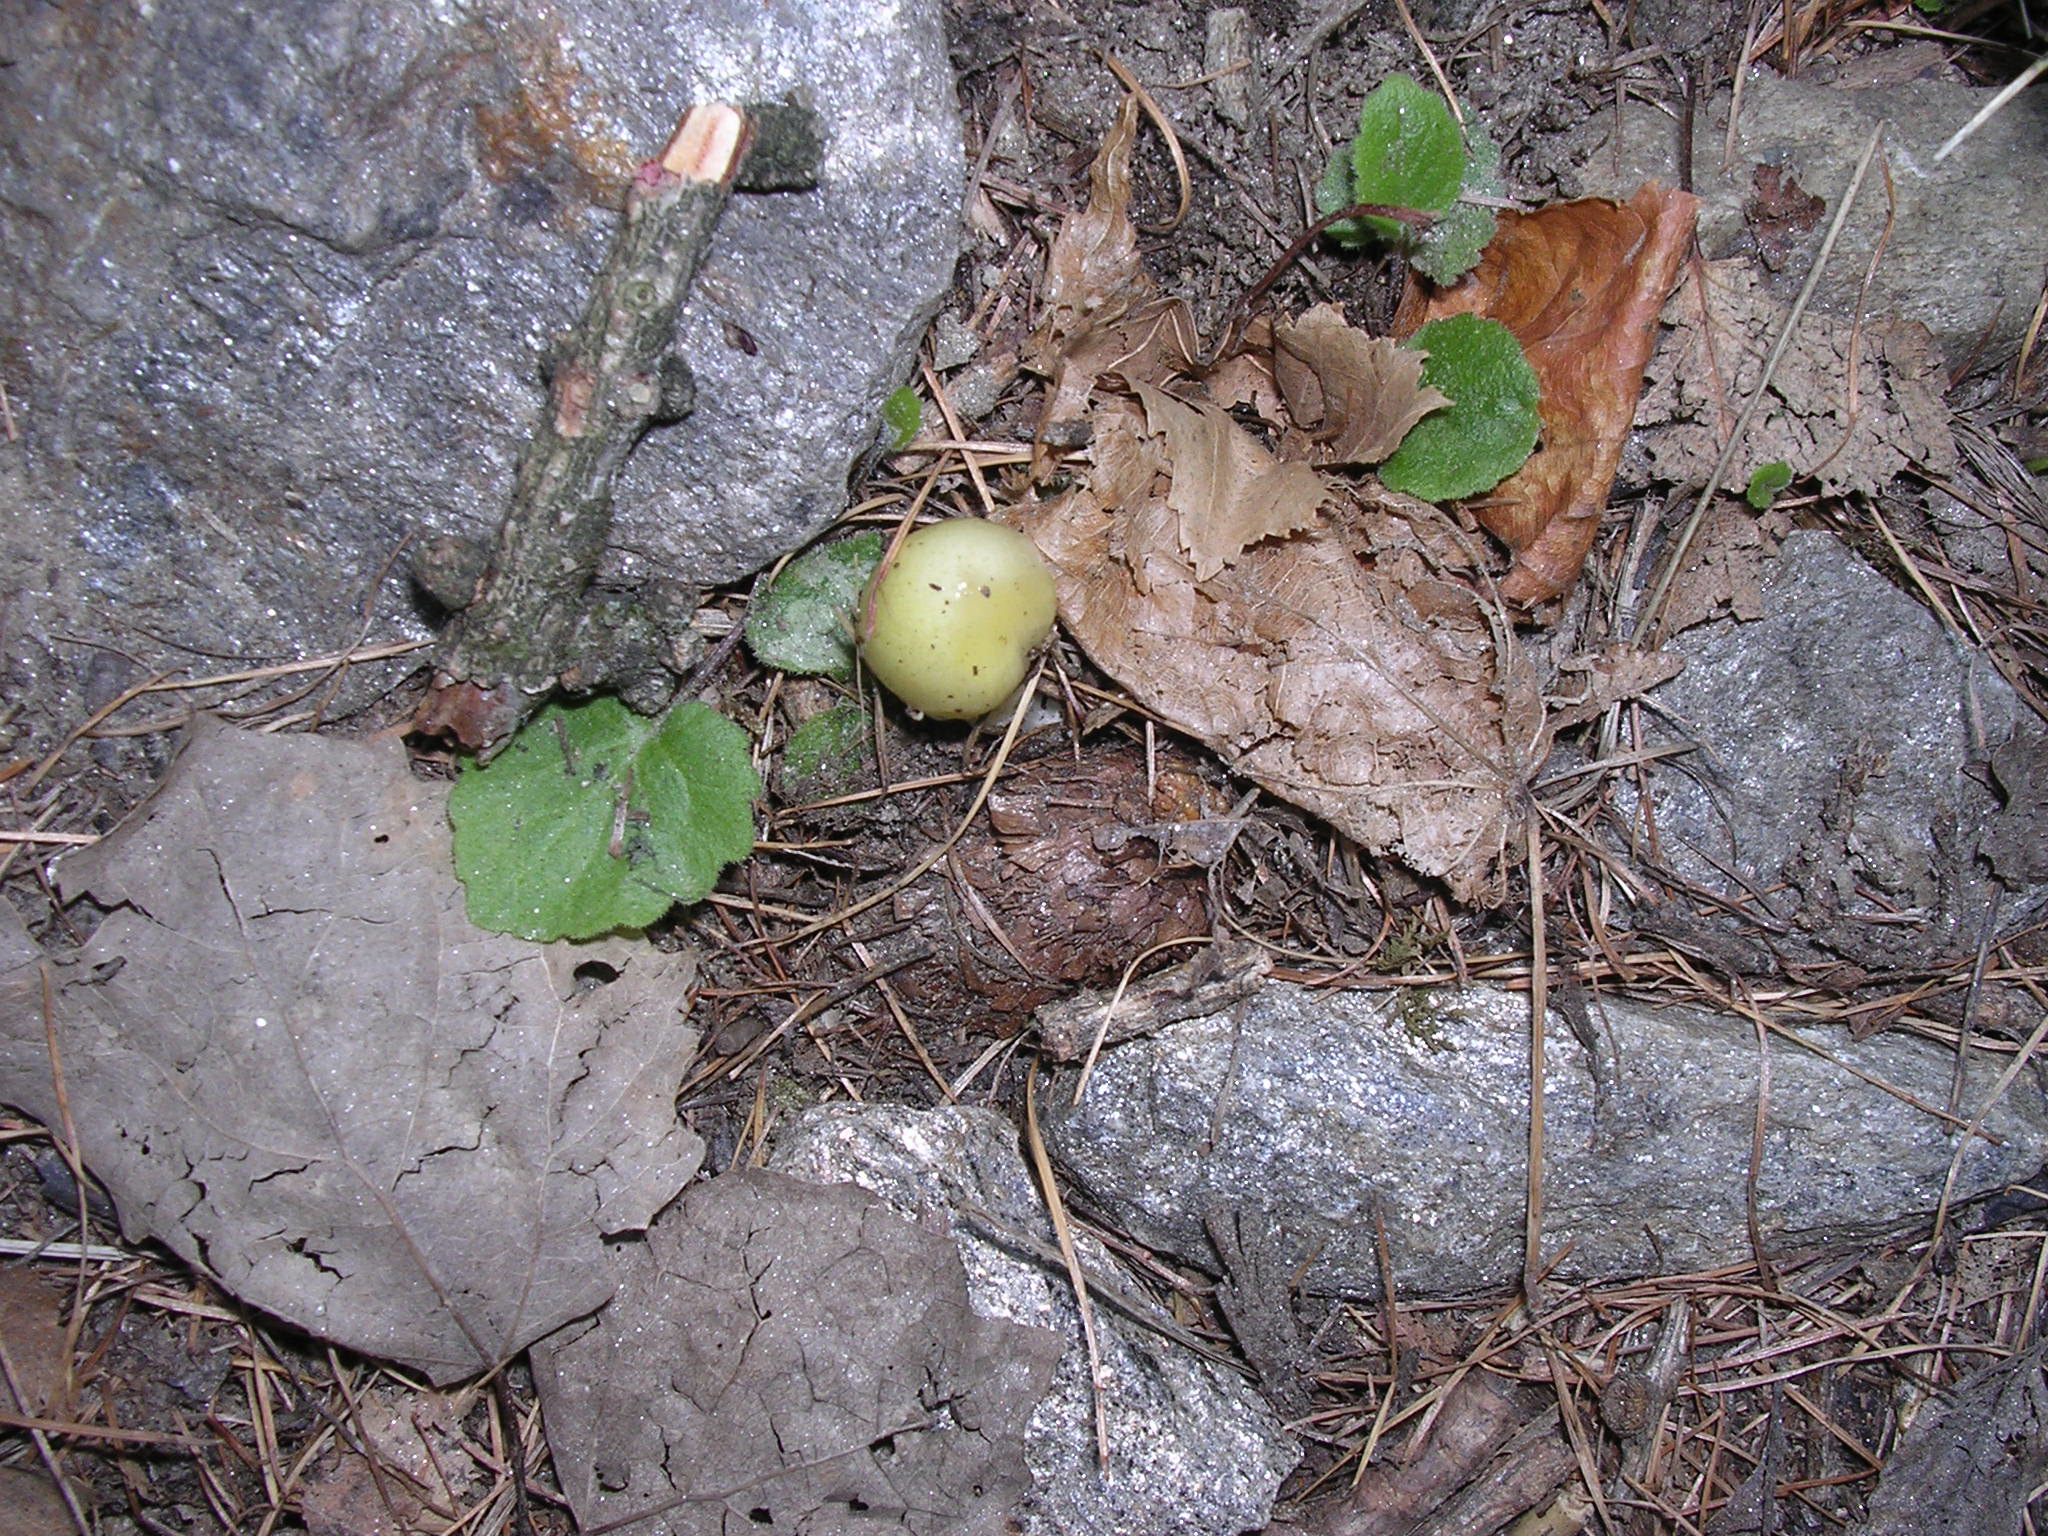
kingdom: Fungi
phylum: Basidiomycota
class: Agaricomycetes
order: Agaricales
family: Bolbitiaceae
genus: Bolbitius
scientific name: Bolbitius titubans
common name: Yellow fieldcap
